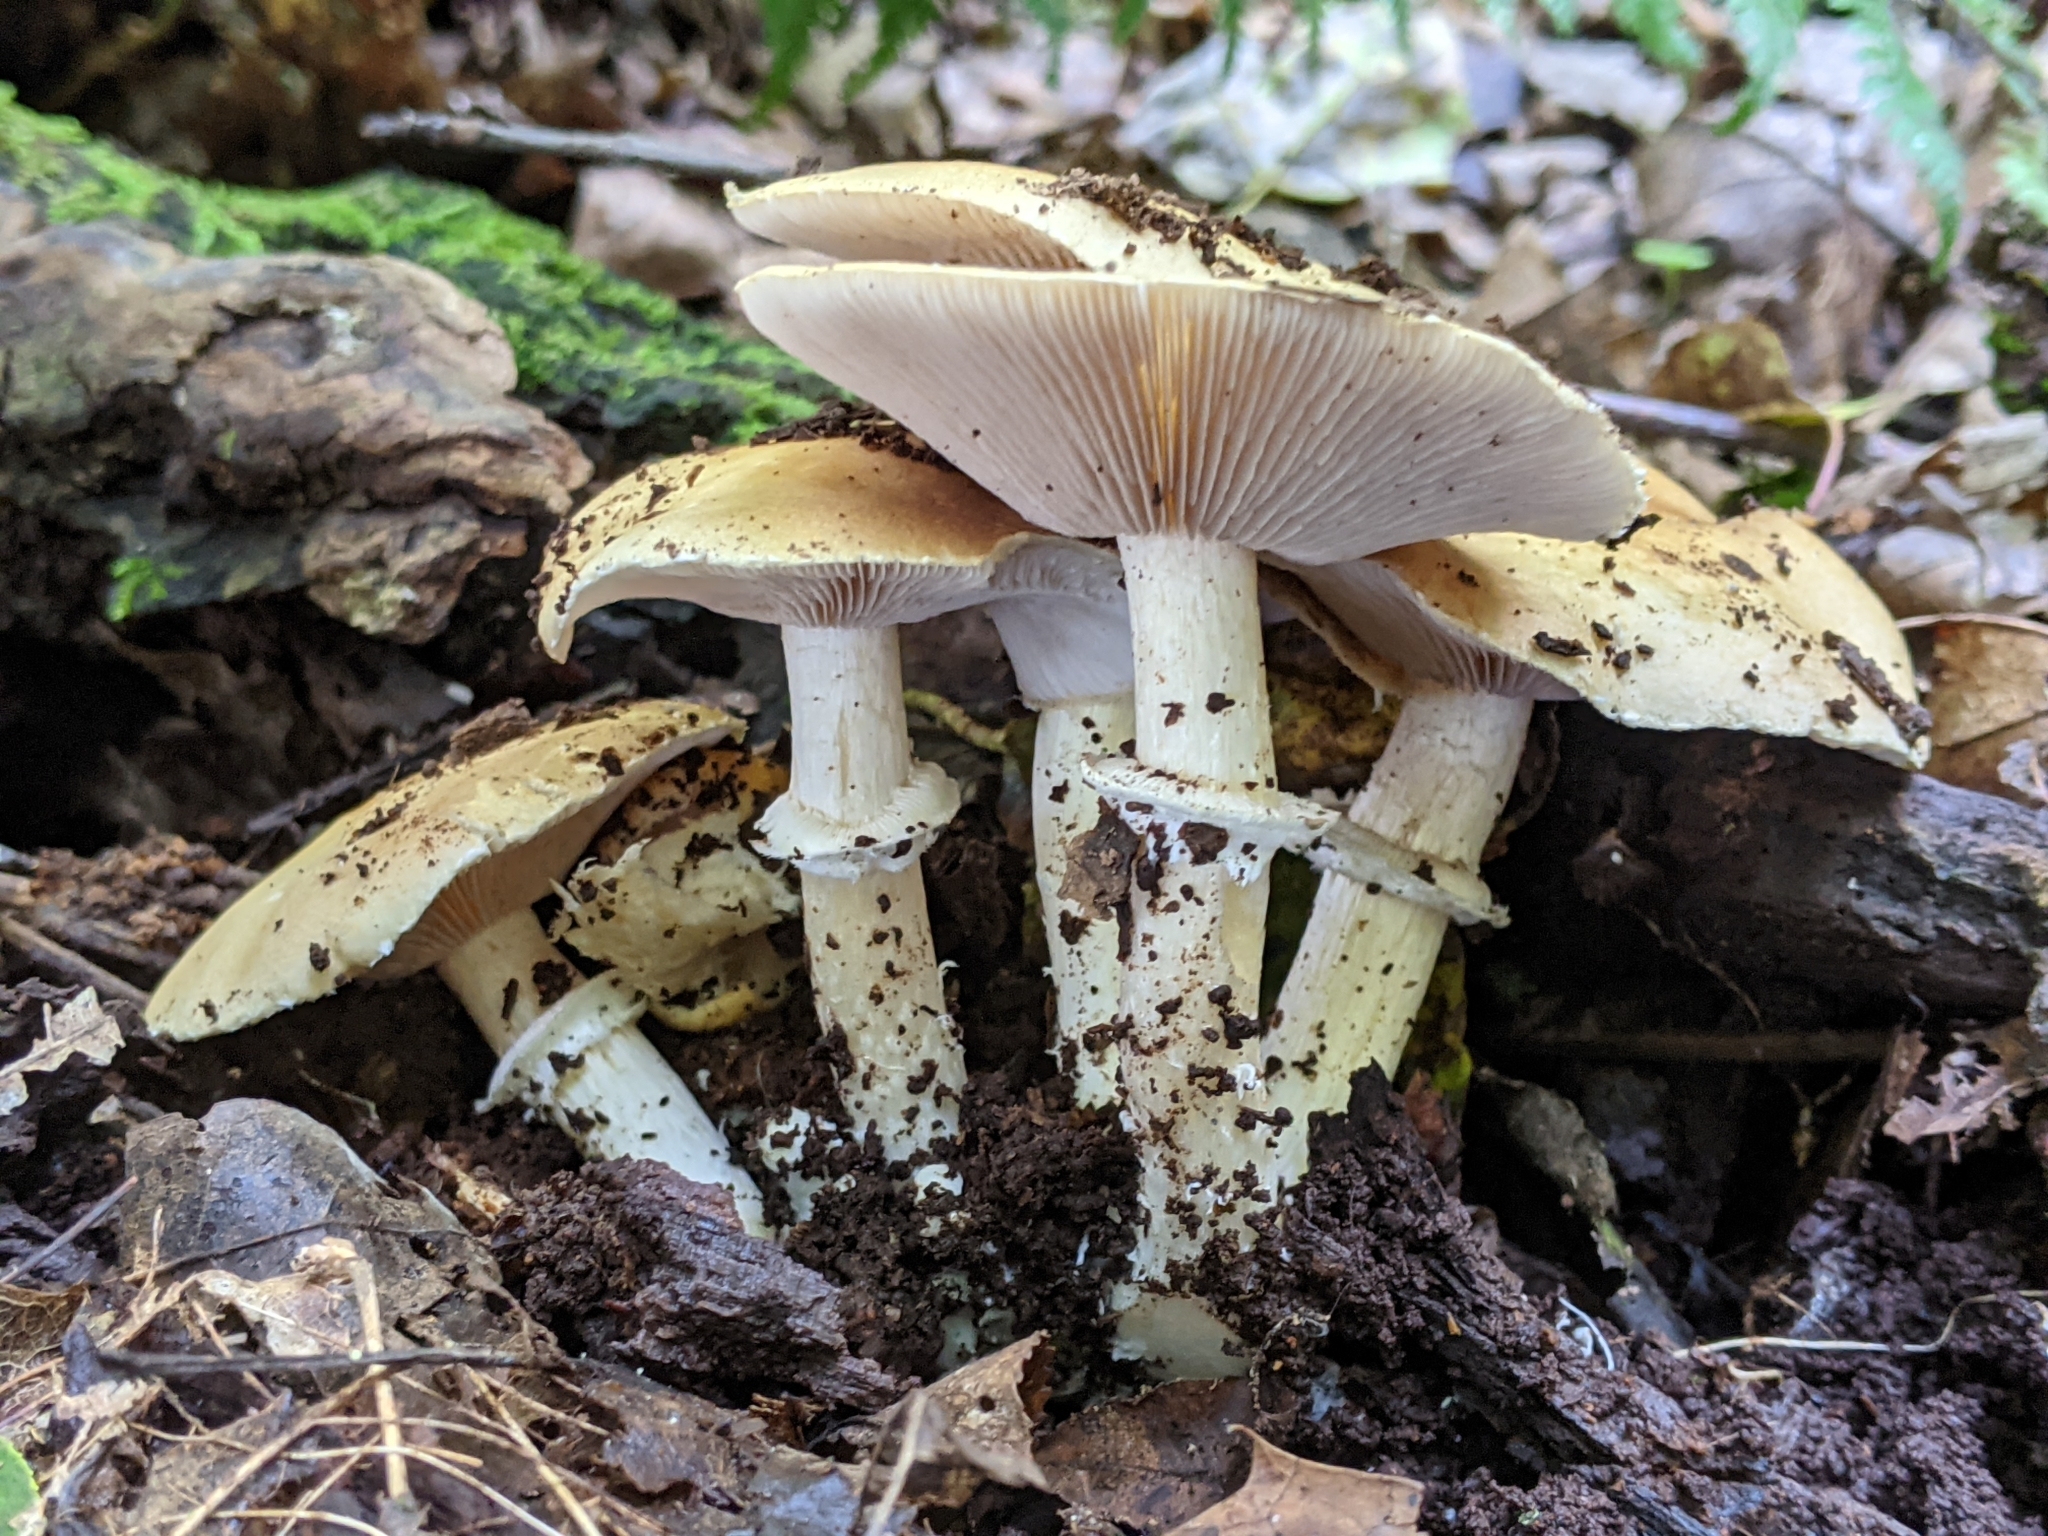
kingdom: Fungi
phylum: Basidiomycota
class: Agaricomycetes
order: Agaricales
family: Strophariaceae
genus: Stropharia
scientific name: Stropharia hardii
